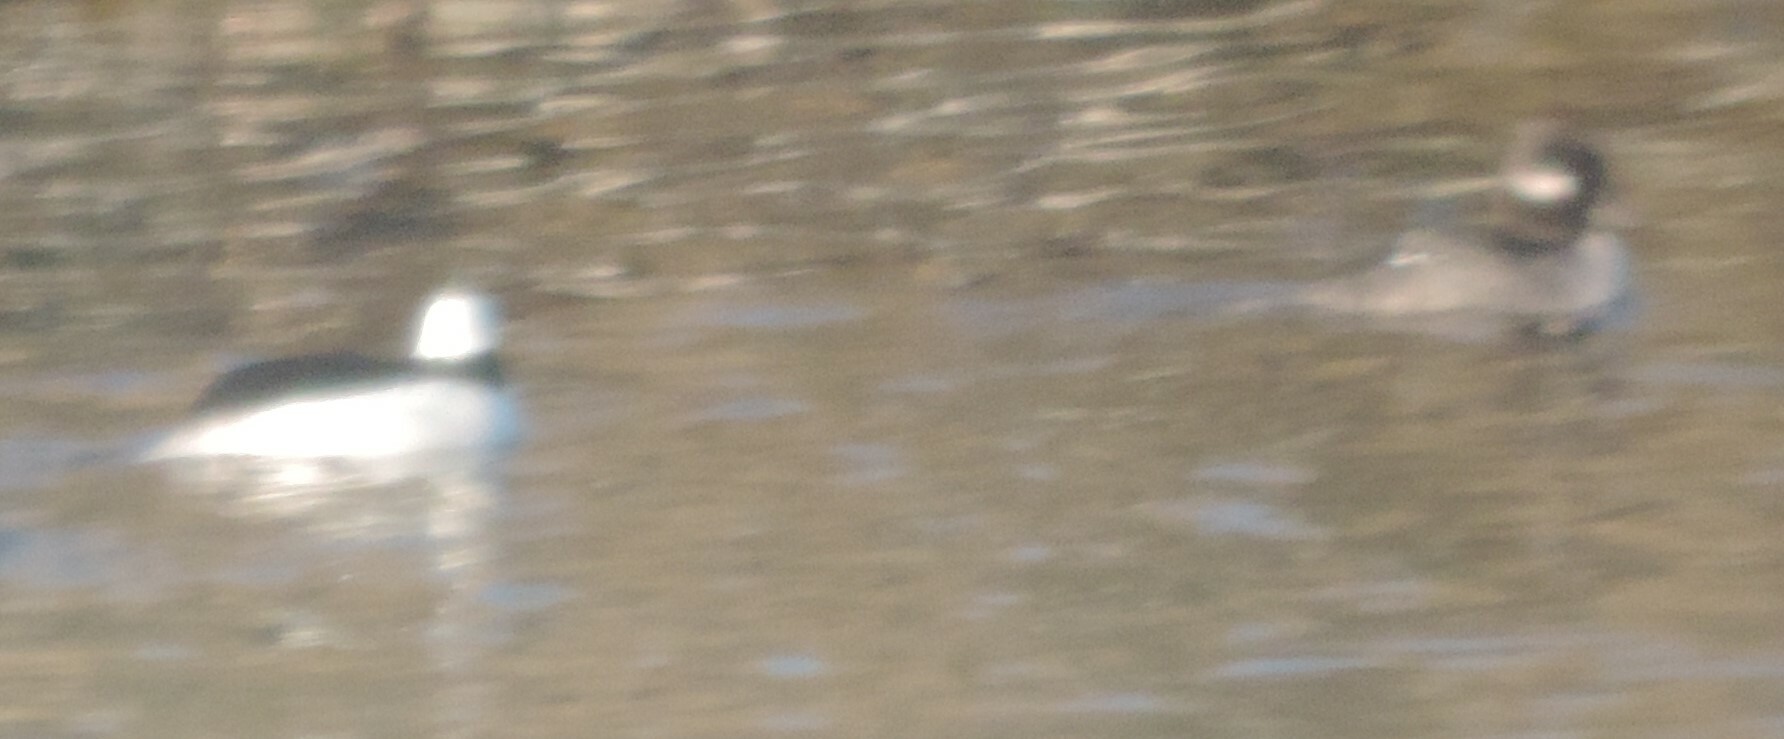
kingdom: Animalia
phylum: Chordata
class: Aves
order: Anseriformes
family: Anatidae
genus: Bucephala
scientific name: Bucephala albeola
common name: Bufflehead
